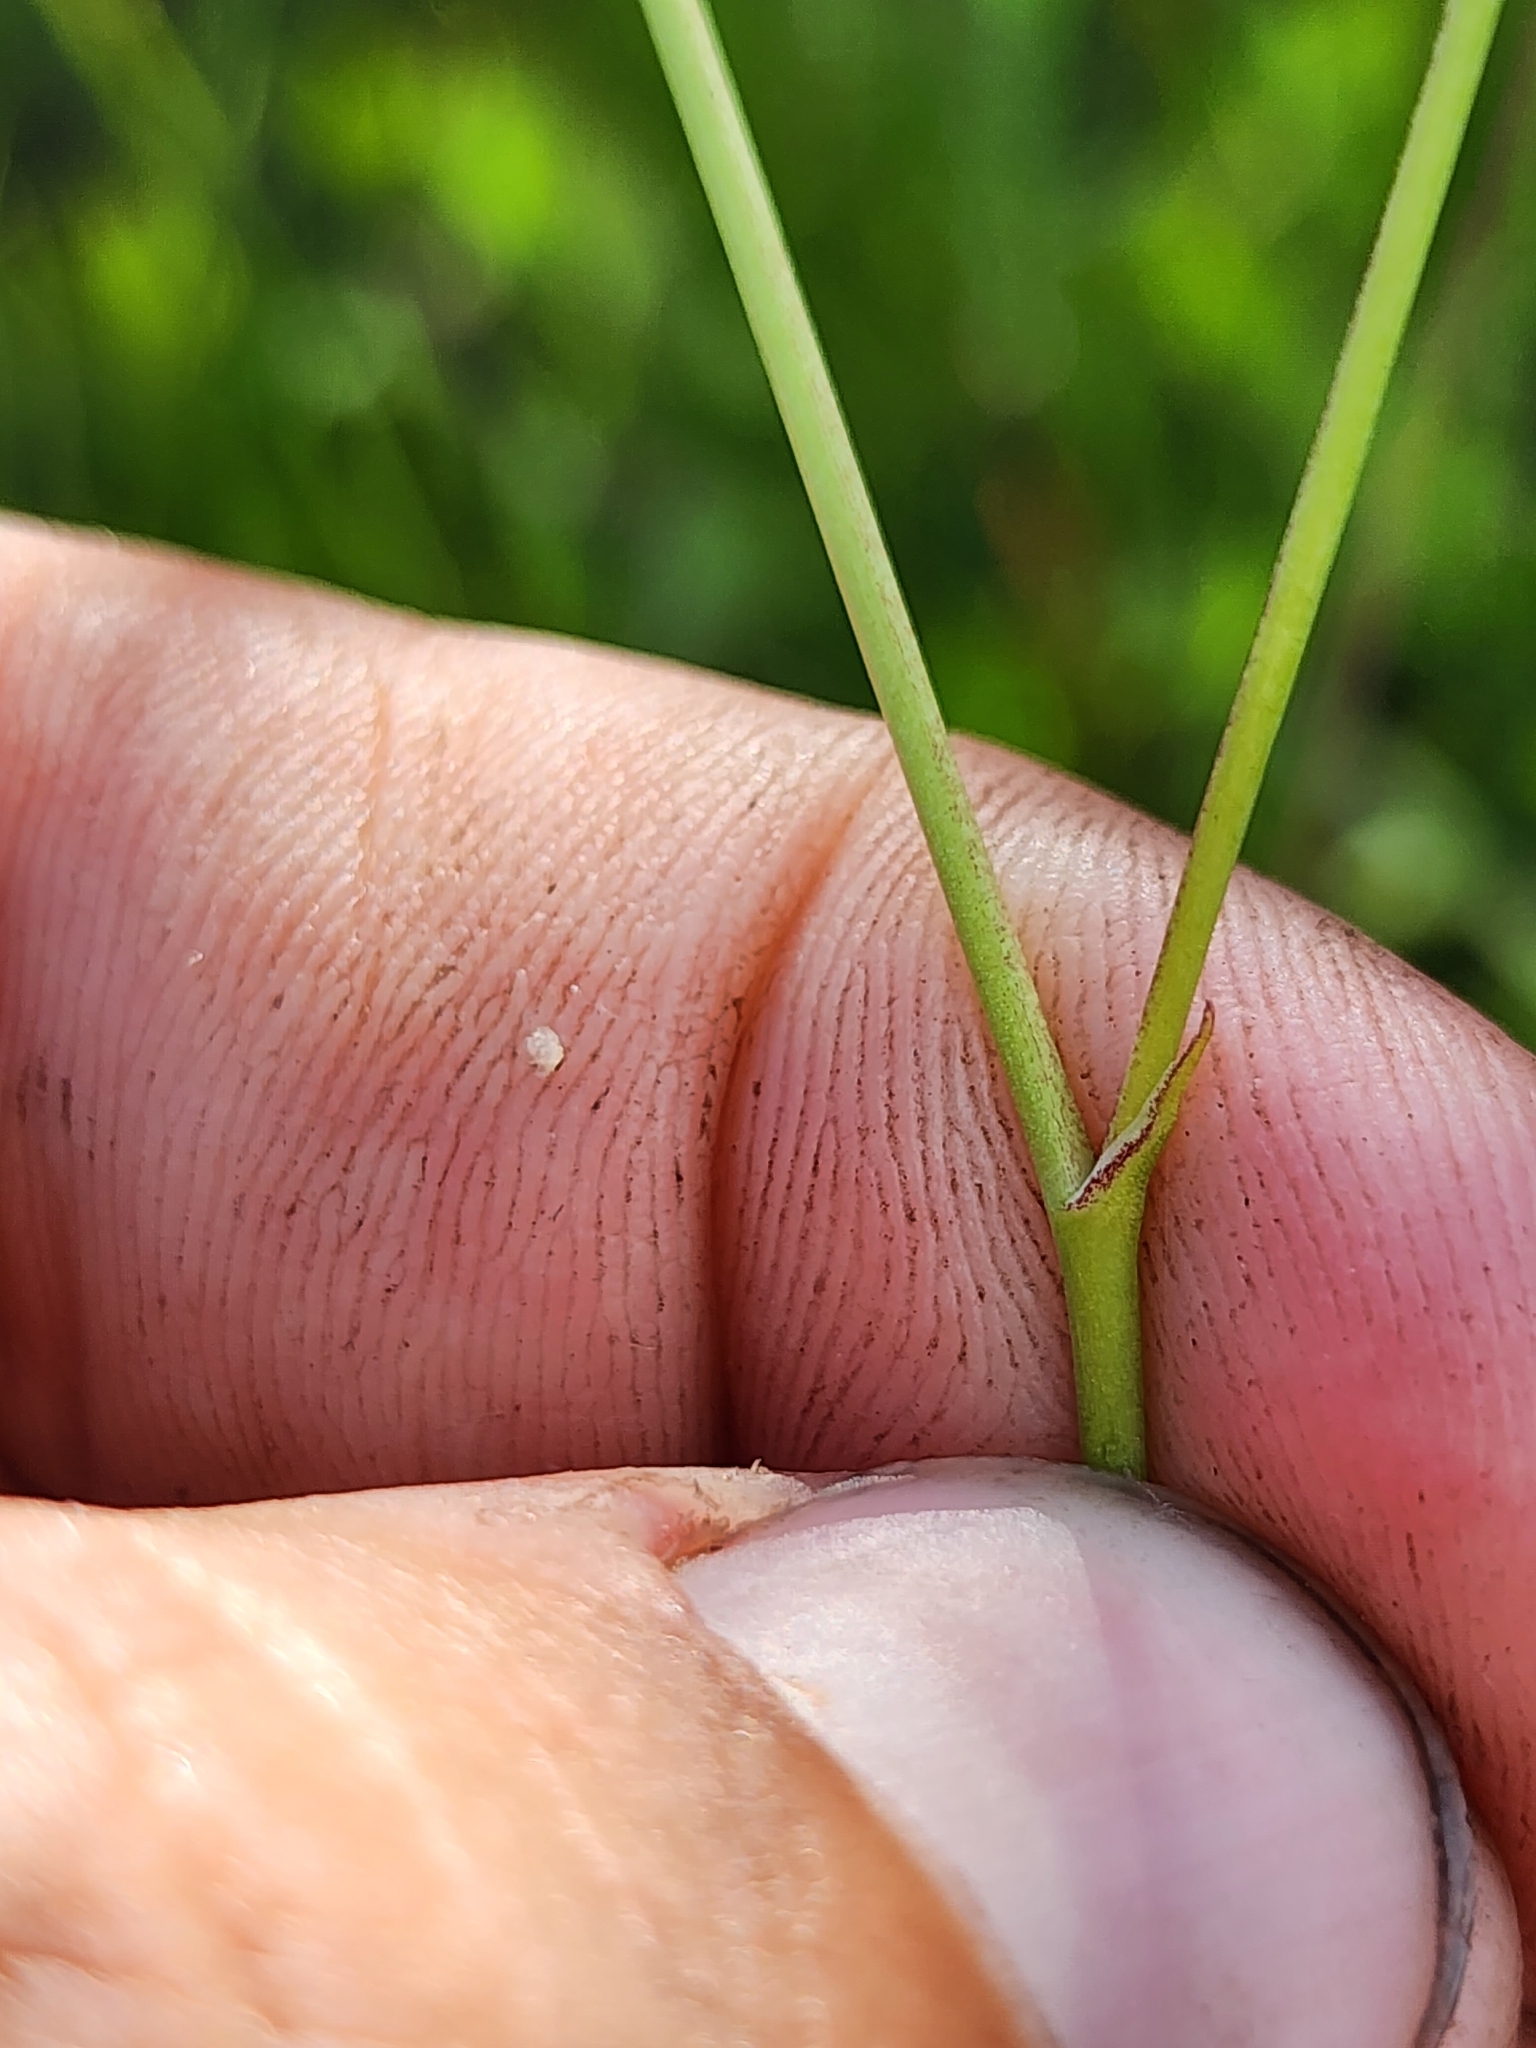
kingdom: Plantae
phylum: Tracheophyta
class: Liliopsida
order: Asparagales
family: Asparagaceae
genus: Schoenolirion
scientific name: Schoenolirion albiflorum
